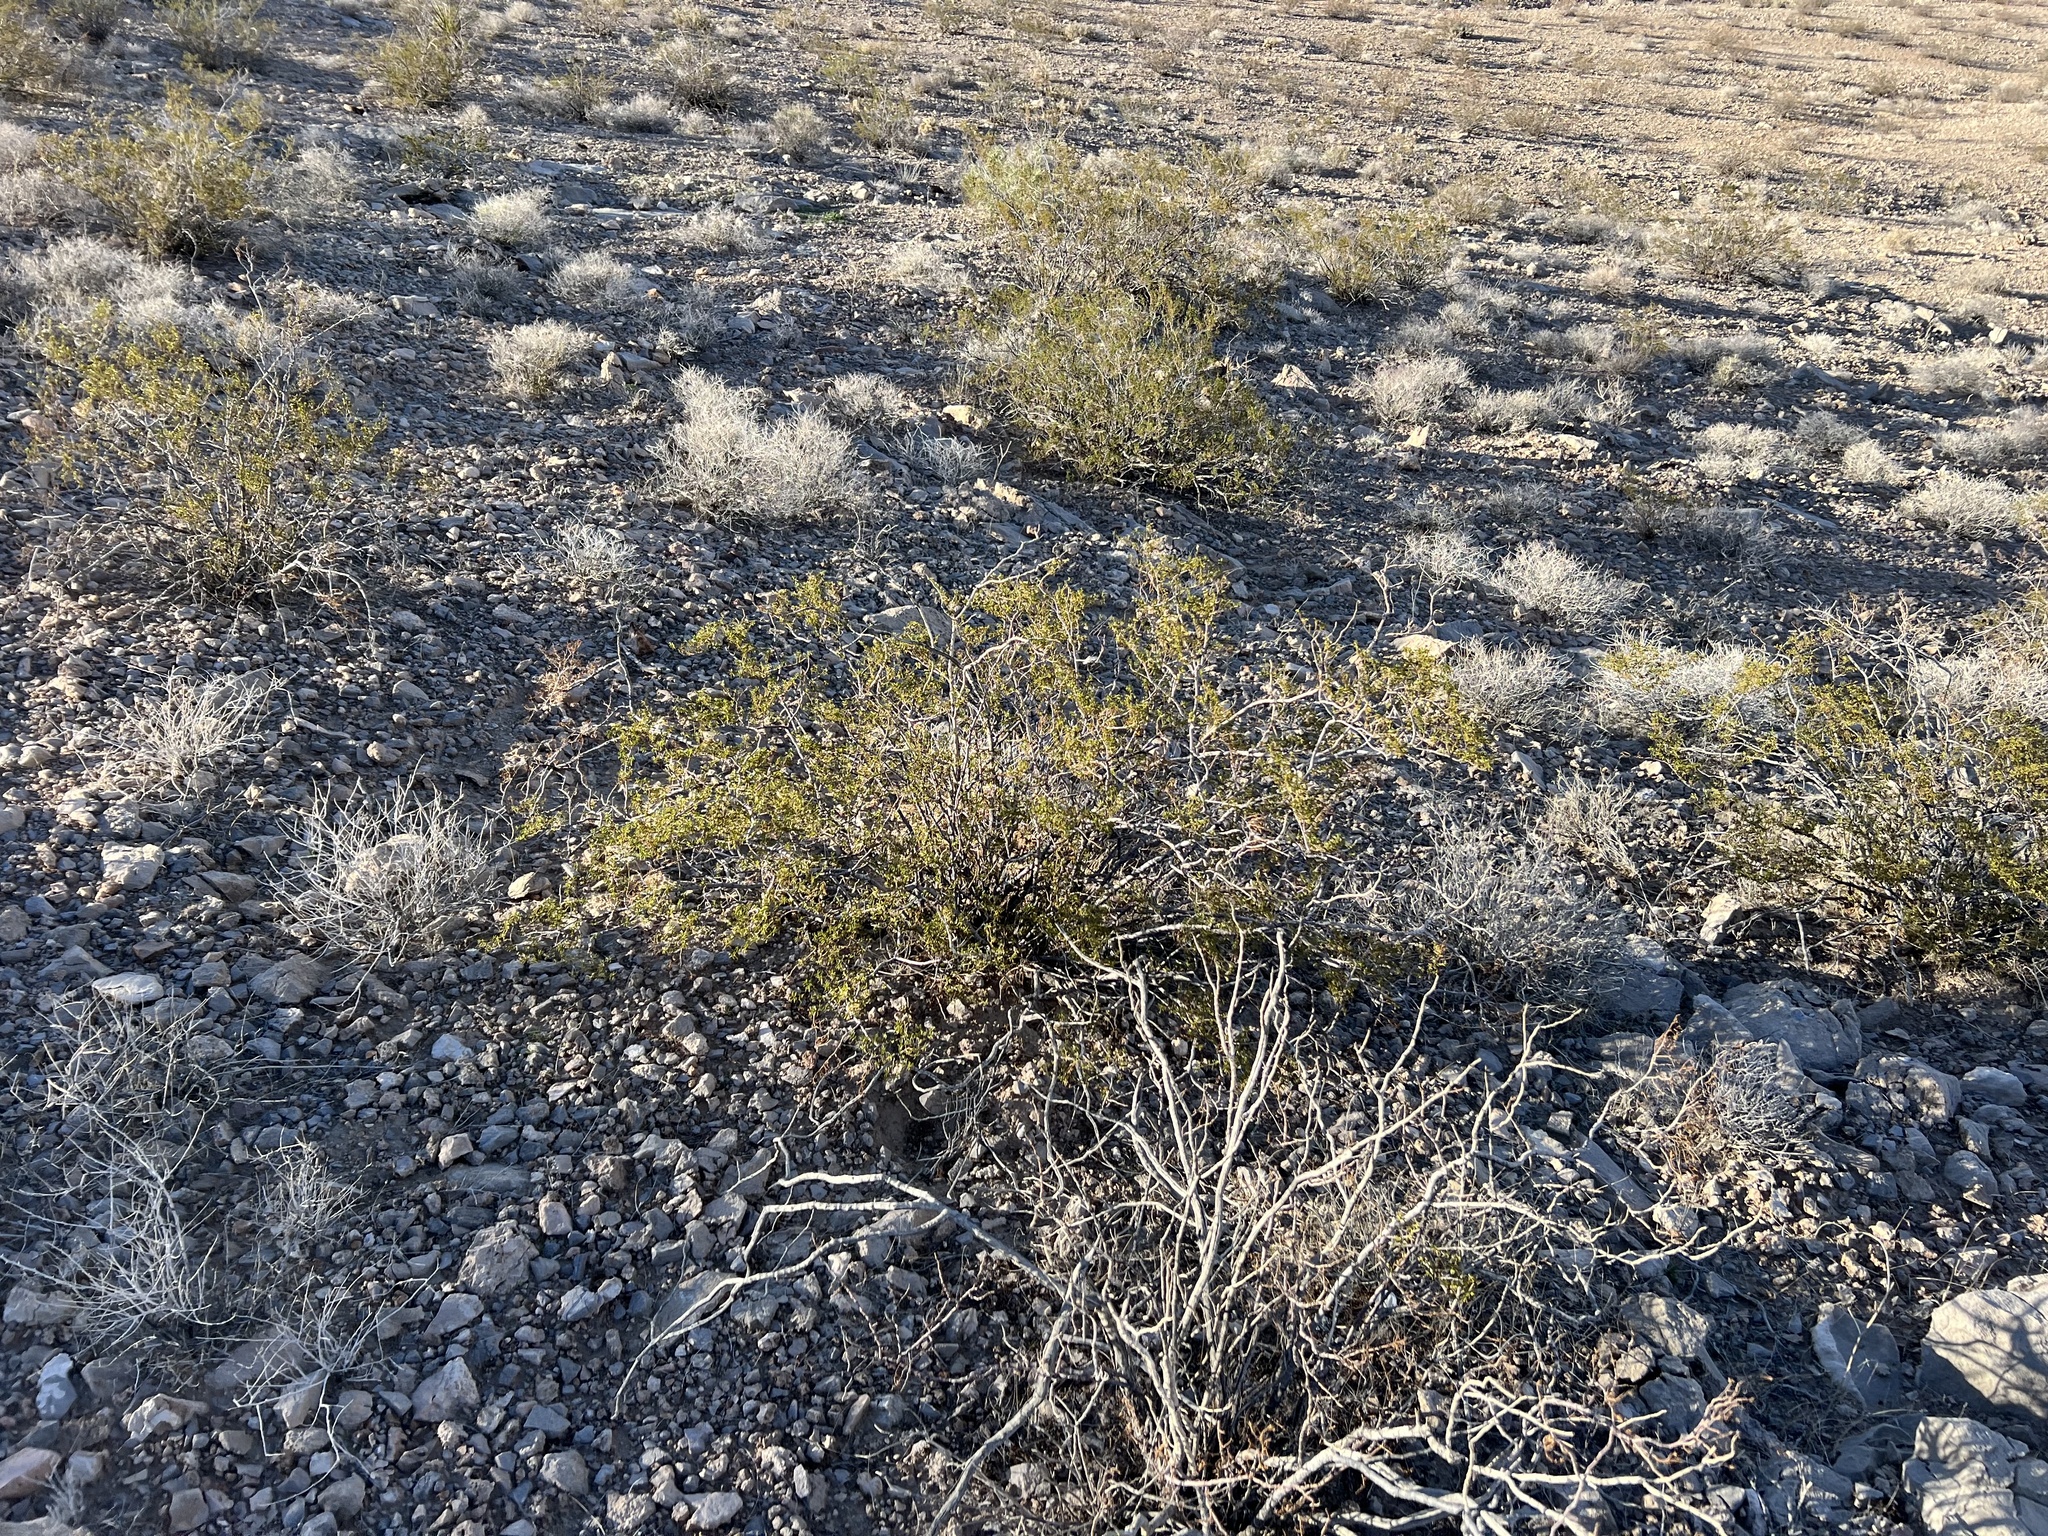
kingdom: Plantae
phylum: Tracheophyta
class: Magnoliopsida
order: Zygophyllales
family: Zygophyllaceae
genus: Larrea
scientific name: Larrea tridentata
